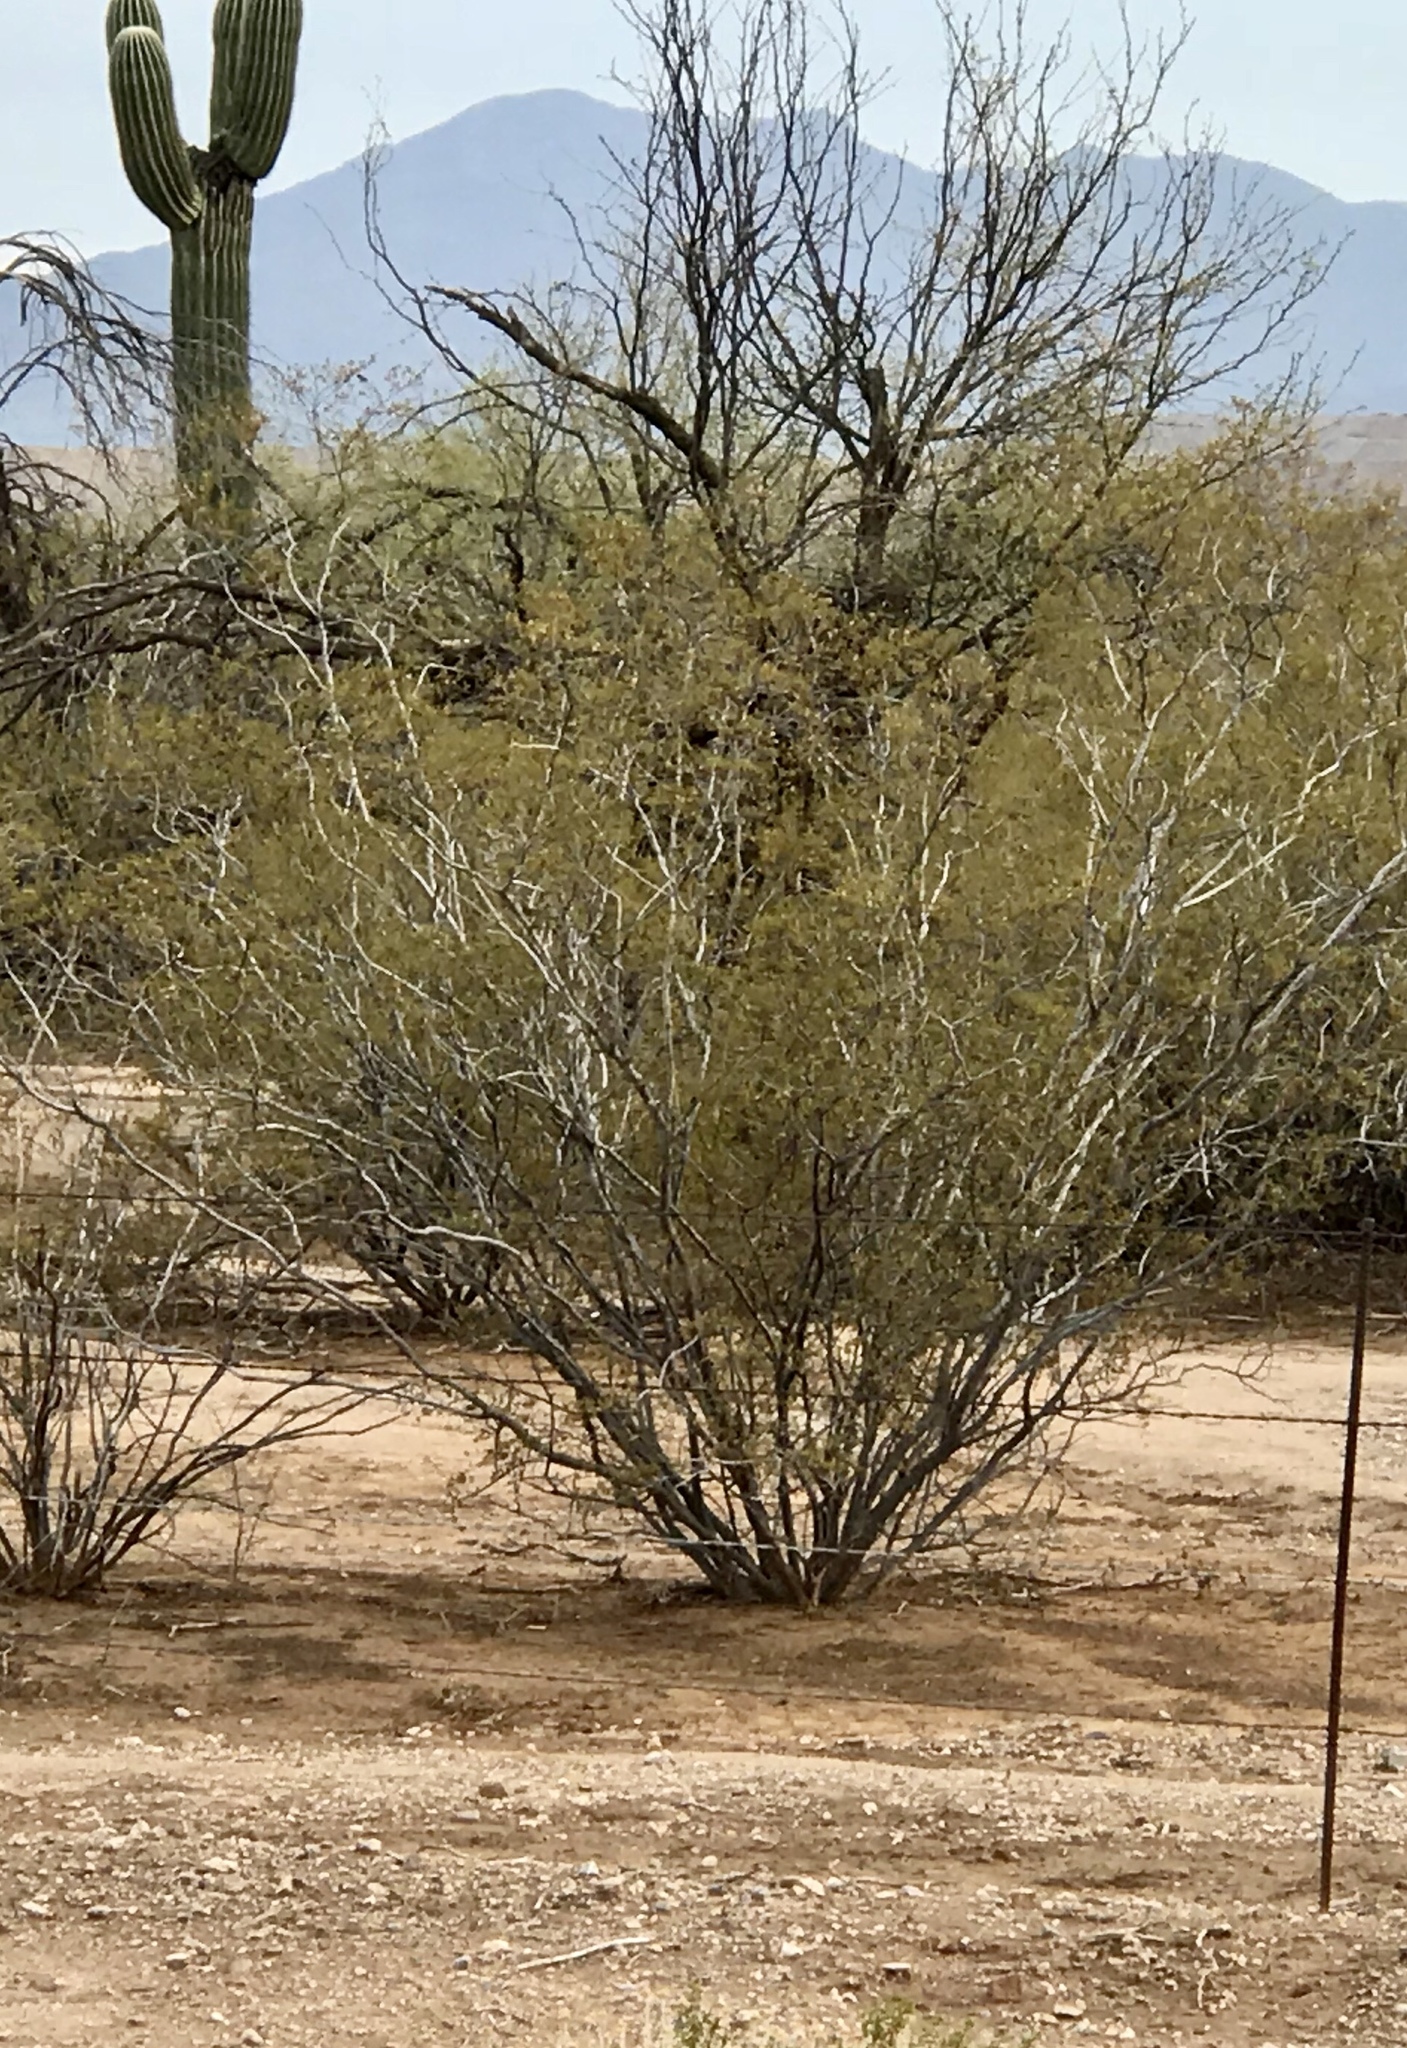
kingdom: Plantae
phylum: Tracheophyta
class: Magnoliopsida
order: Zygophyllales
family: Zygophyllaceae
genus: Larrea
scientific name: Larrea tridentata
